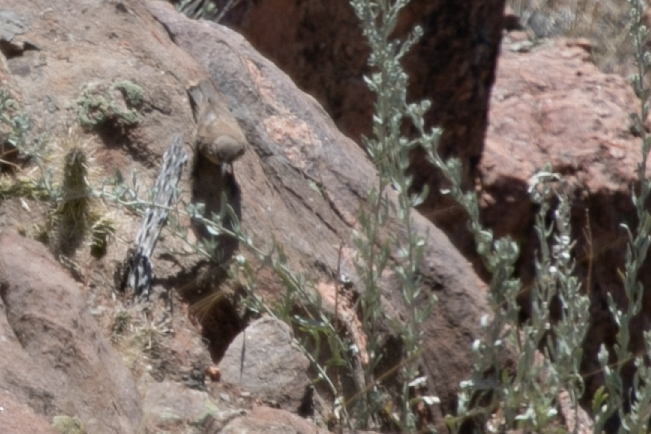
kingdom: Animalia
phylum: Chordata
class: Aves
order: Passeriformes
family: Troglodytidae
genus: Salpinctes
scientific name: Salpinctes obsoletus
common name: Rock wren
